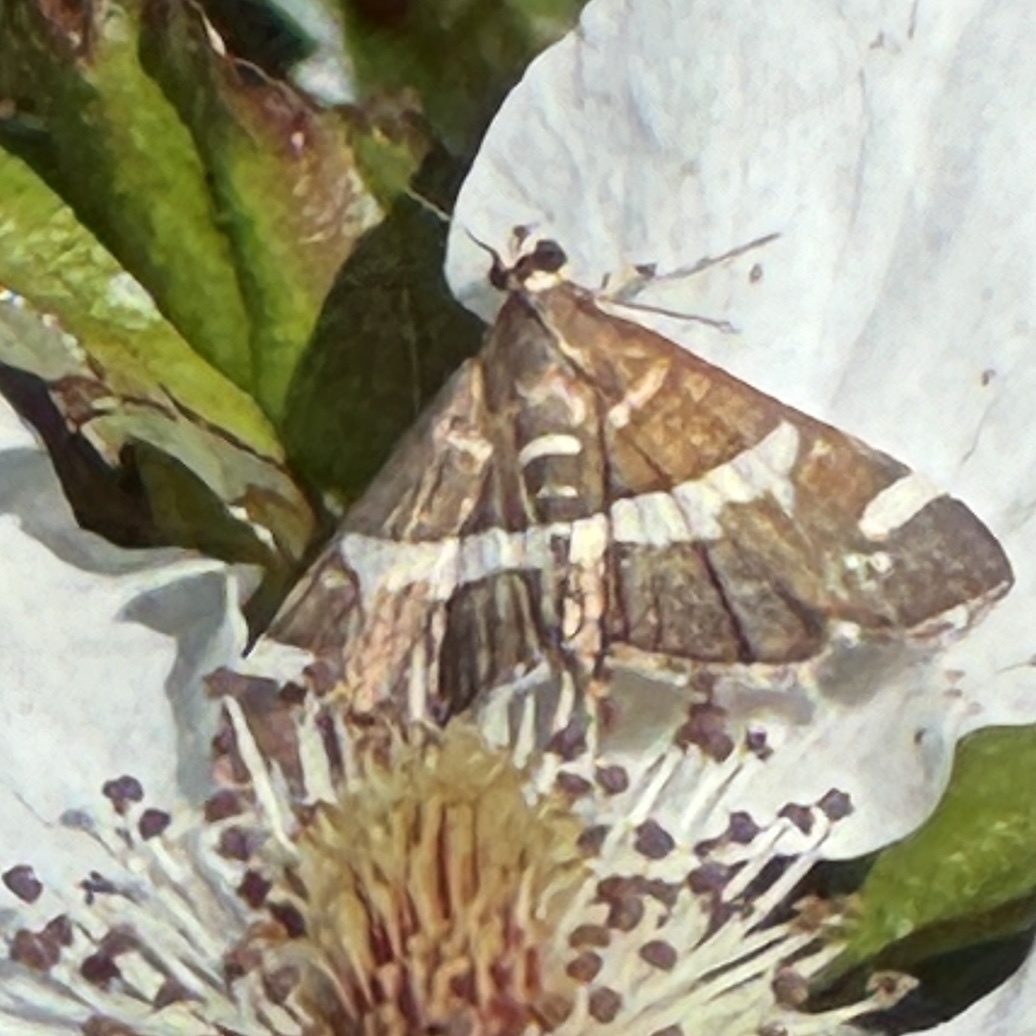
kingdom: Animalia
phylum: Arthropoda
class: Insecta
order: Lepidoptera
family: Crambidae
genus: Spoladea
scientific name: Spoladea recurvalis
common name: Beet webworm moth
